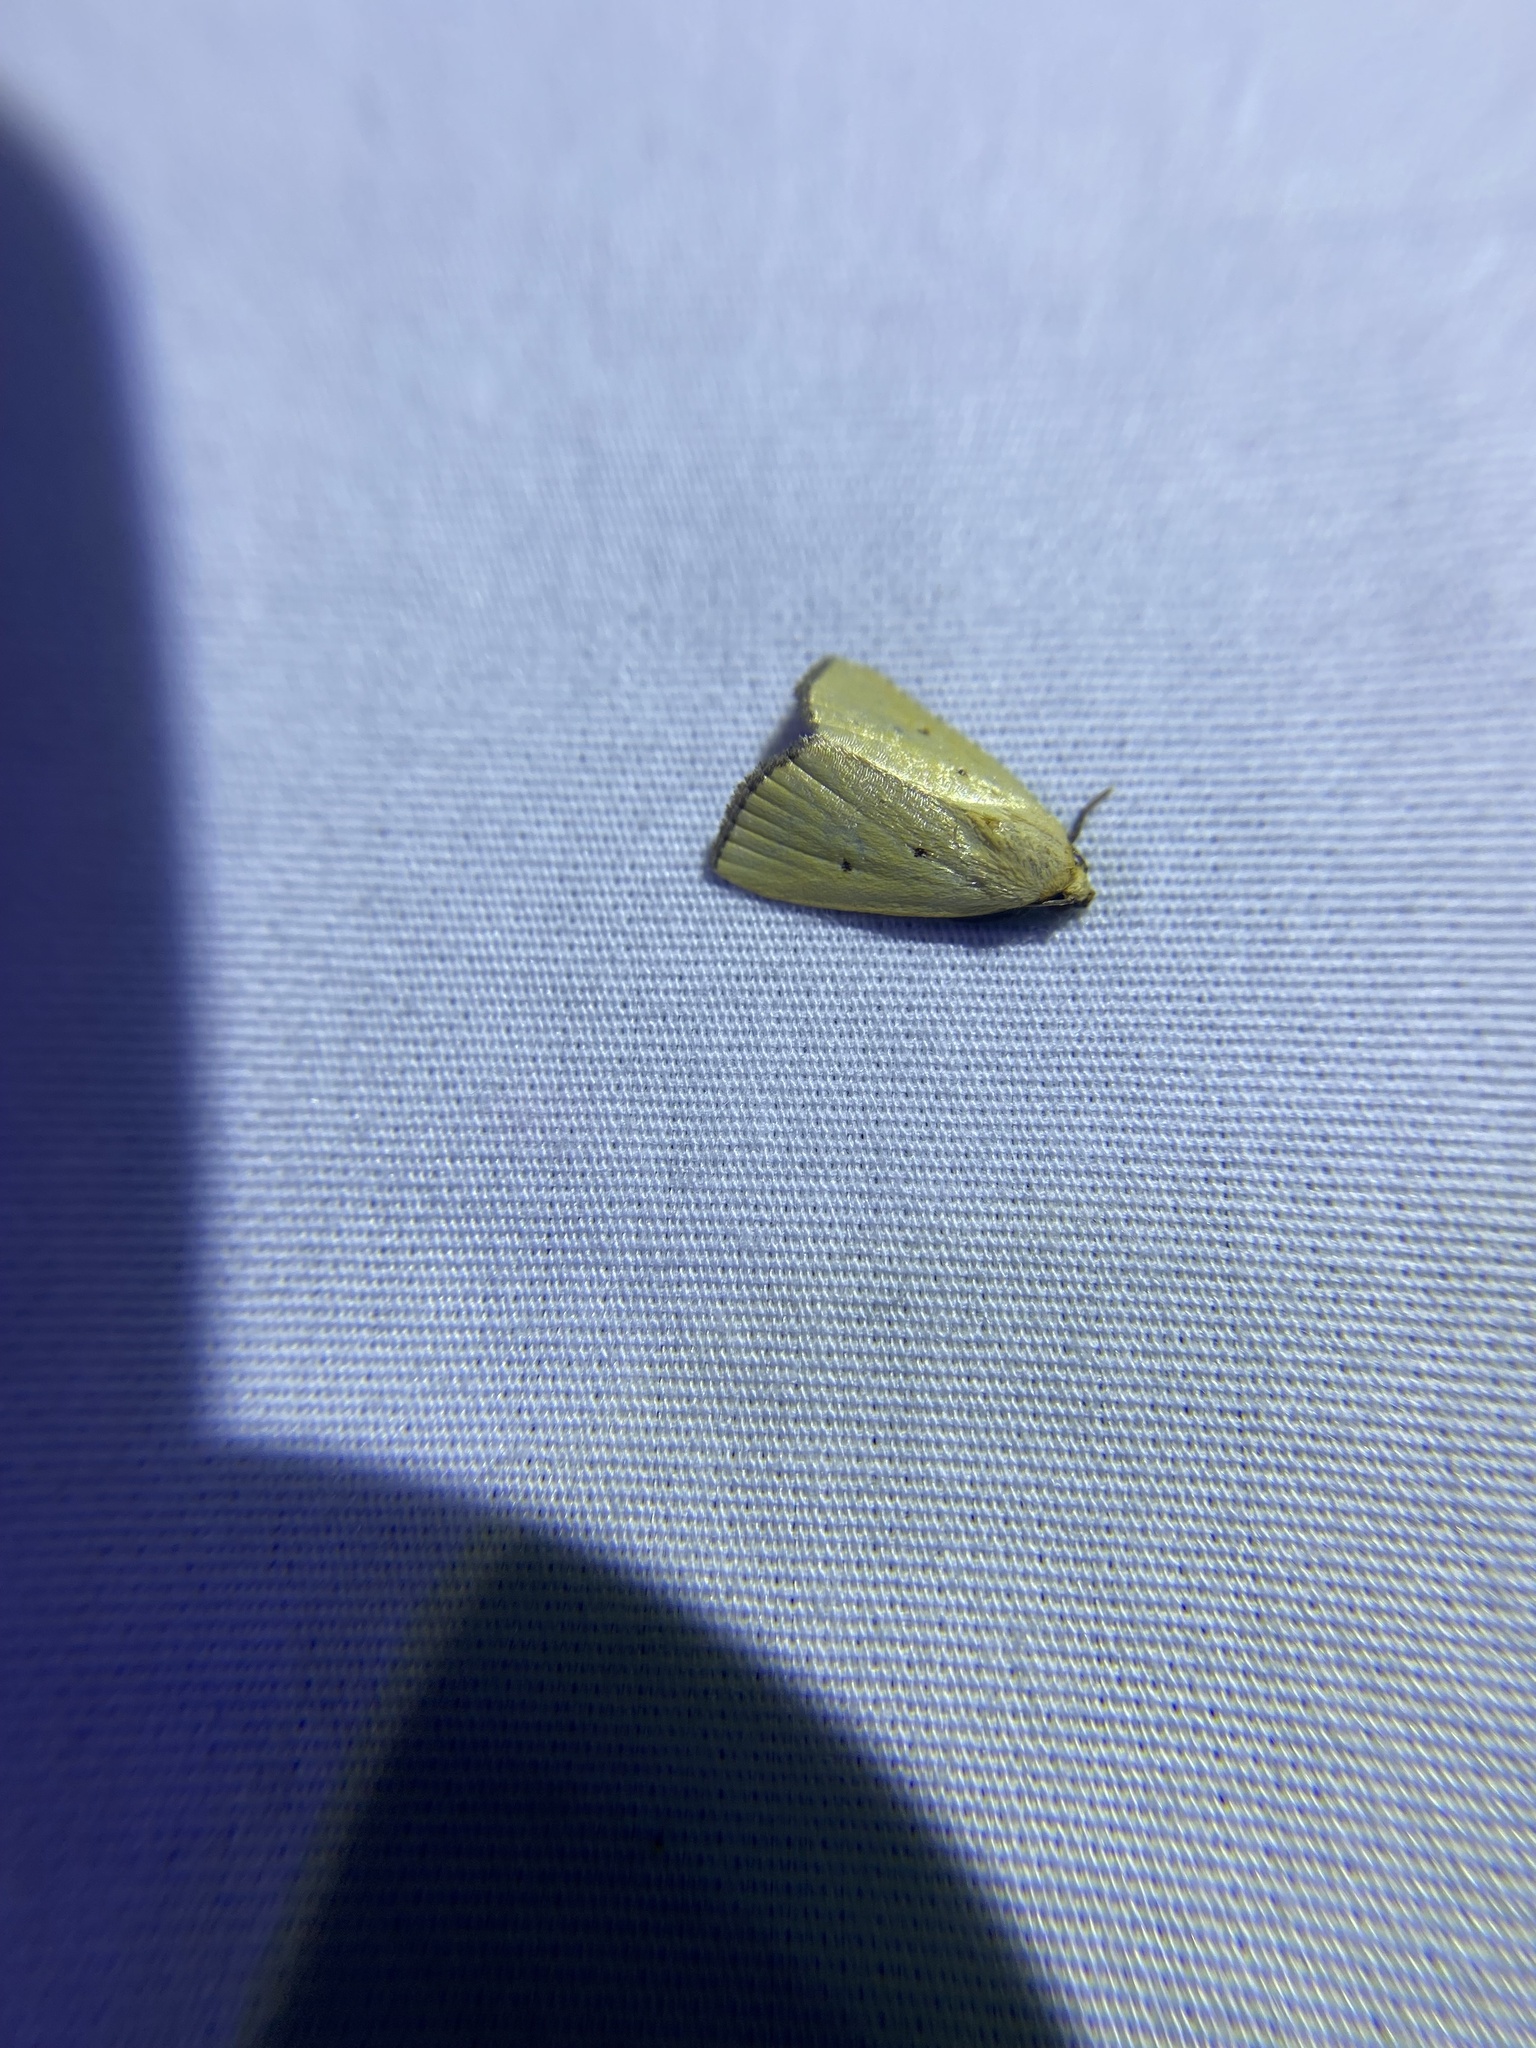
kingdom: Animalia
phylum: Arthropoda
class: Insecta
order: Lepidoptera
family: Noctuidae
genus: Marimatha
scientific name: Marimatha nigrofimbria
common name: Black-bordered lemon moth
